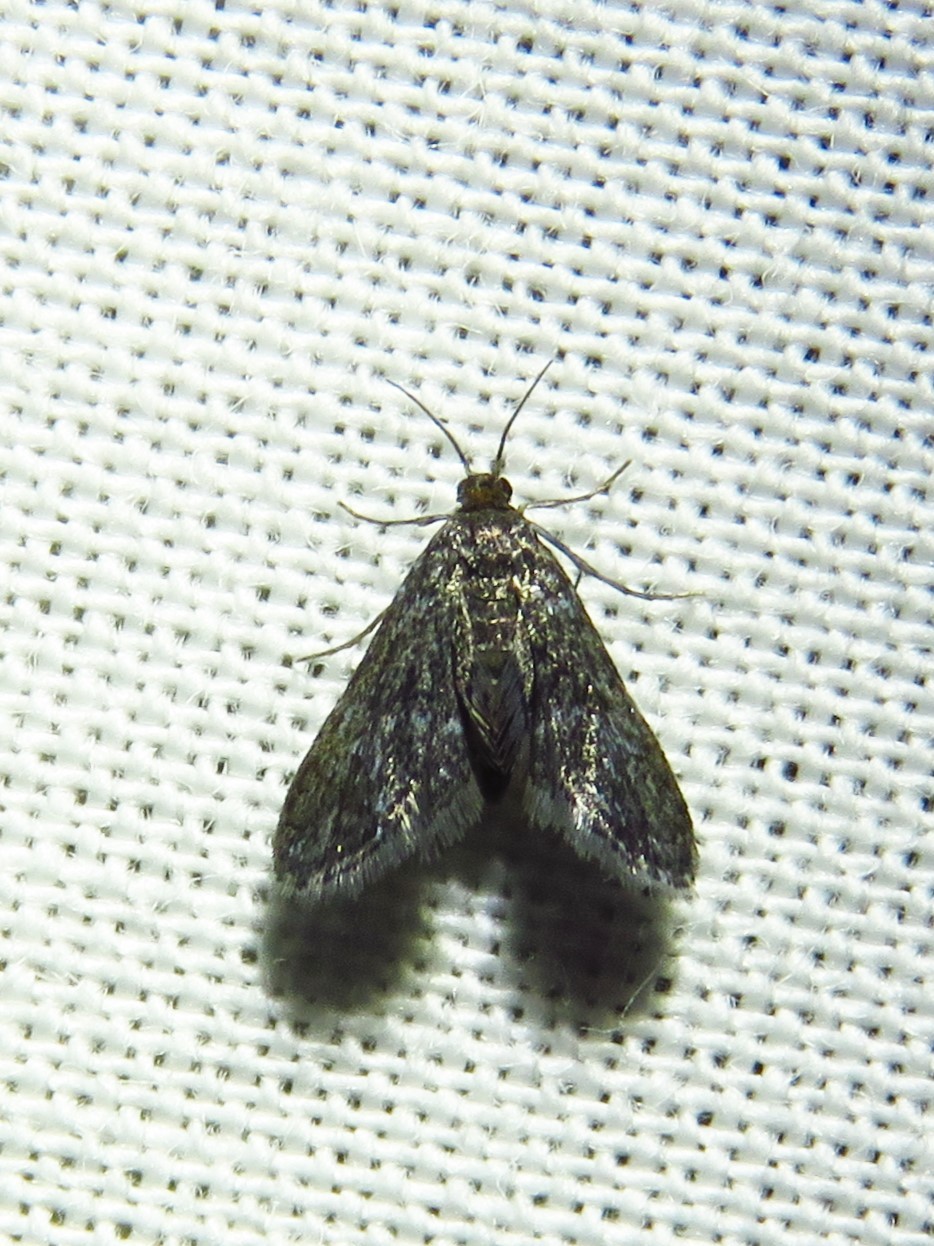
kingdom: Animalia
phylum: Arthropoda
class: Insecta
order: Lepidoptera
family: Crambidae
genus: Elophila
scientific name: Elophila tinealis
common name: Black duckweed moth
